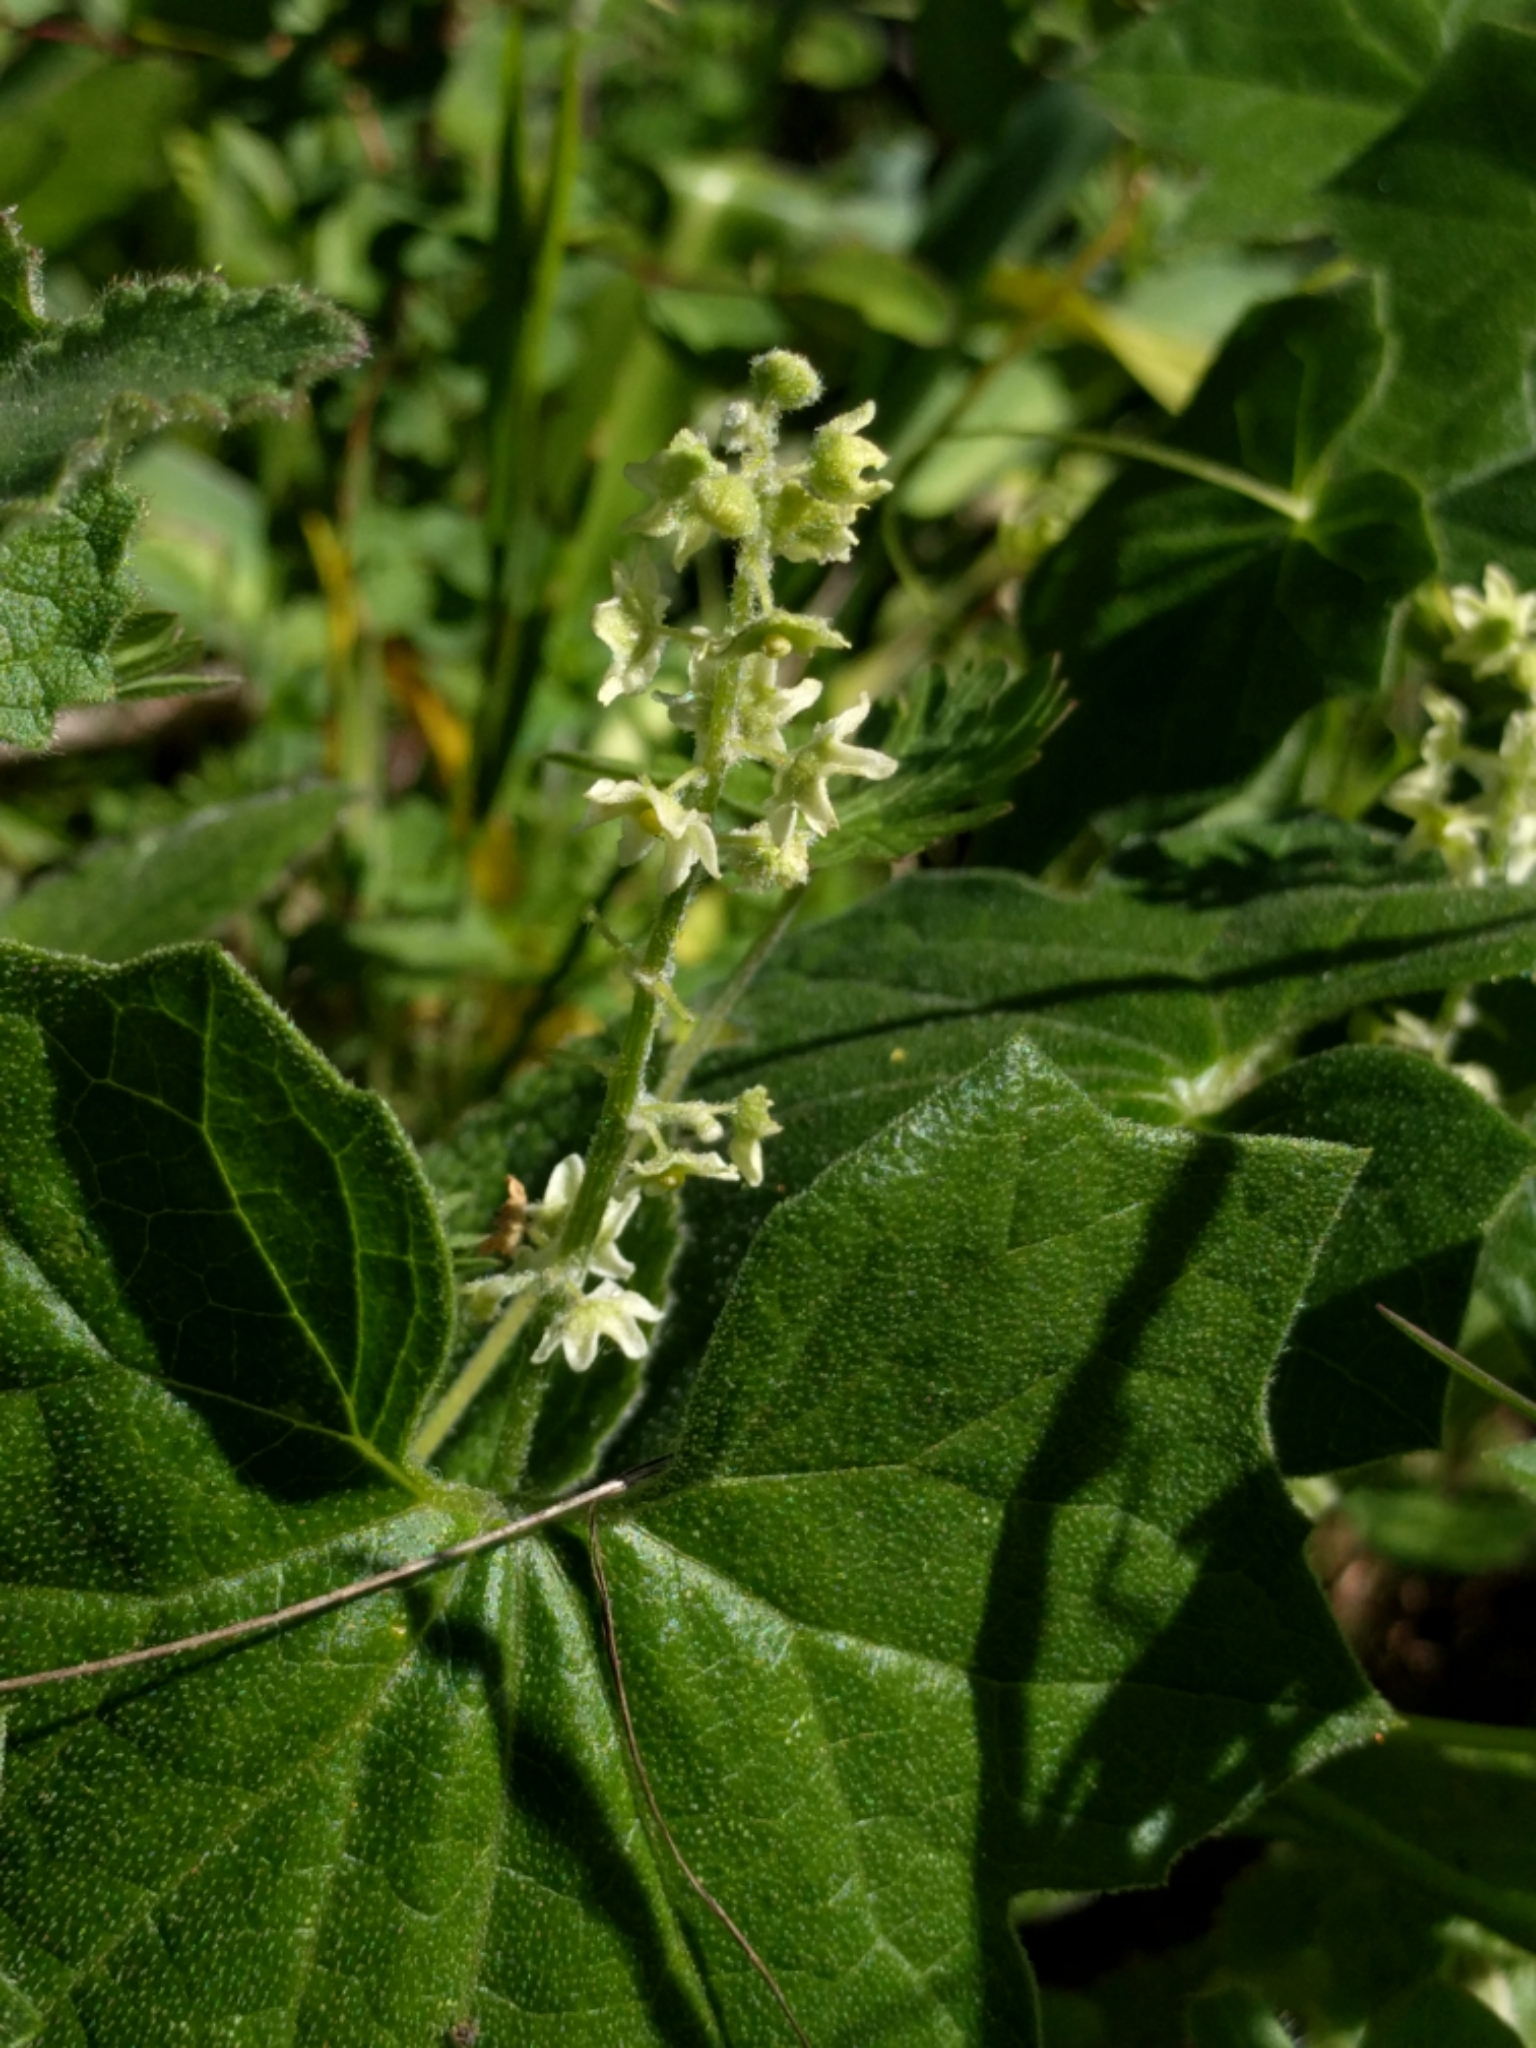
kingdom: Plantae
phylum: Tracheophyta
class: Magnoliopsida
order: Cucurbitales
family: Cucurbitaceae
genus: Marah
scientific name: Marah fabacea
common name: California manroot
